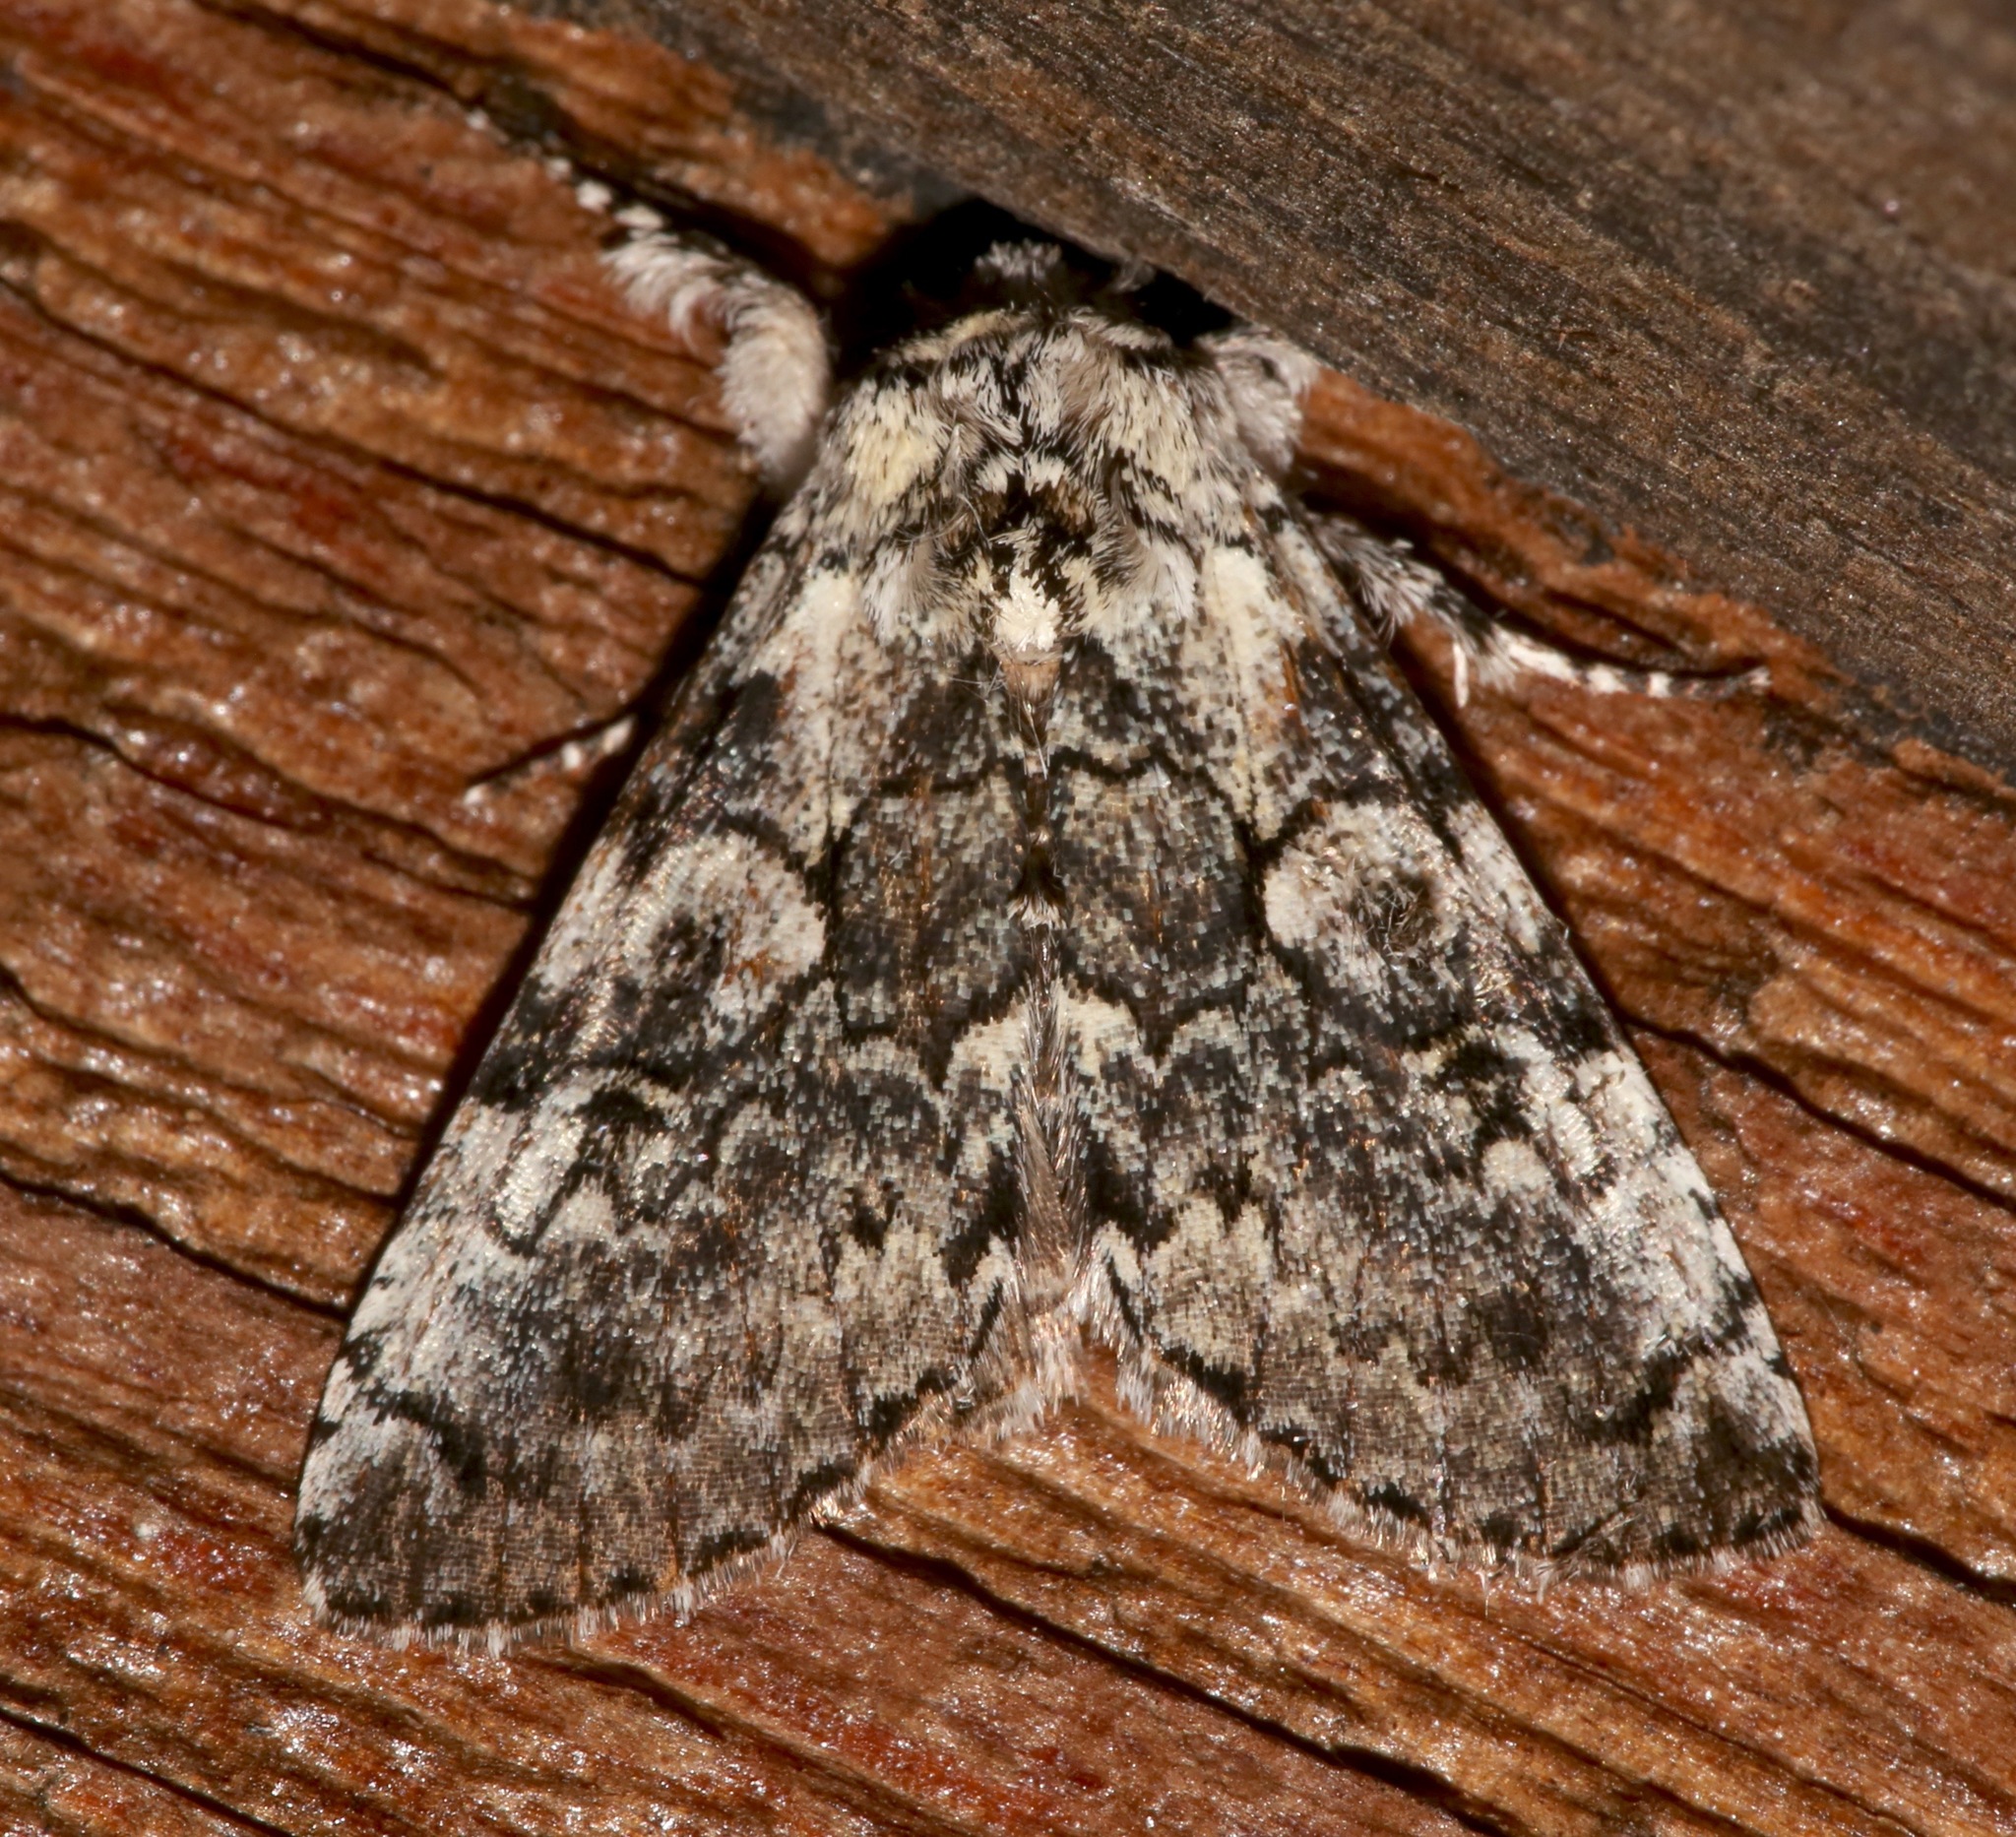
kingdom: Animalia
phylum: Arthropoda
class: Insecta
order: Lepidoptera
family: Noctuidae
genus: Charadra
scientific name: Charadra deridens
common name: Marbled tuffet
